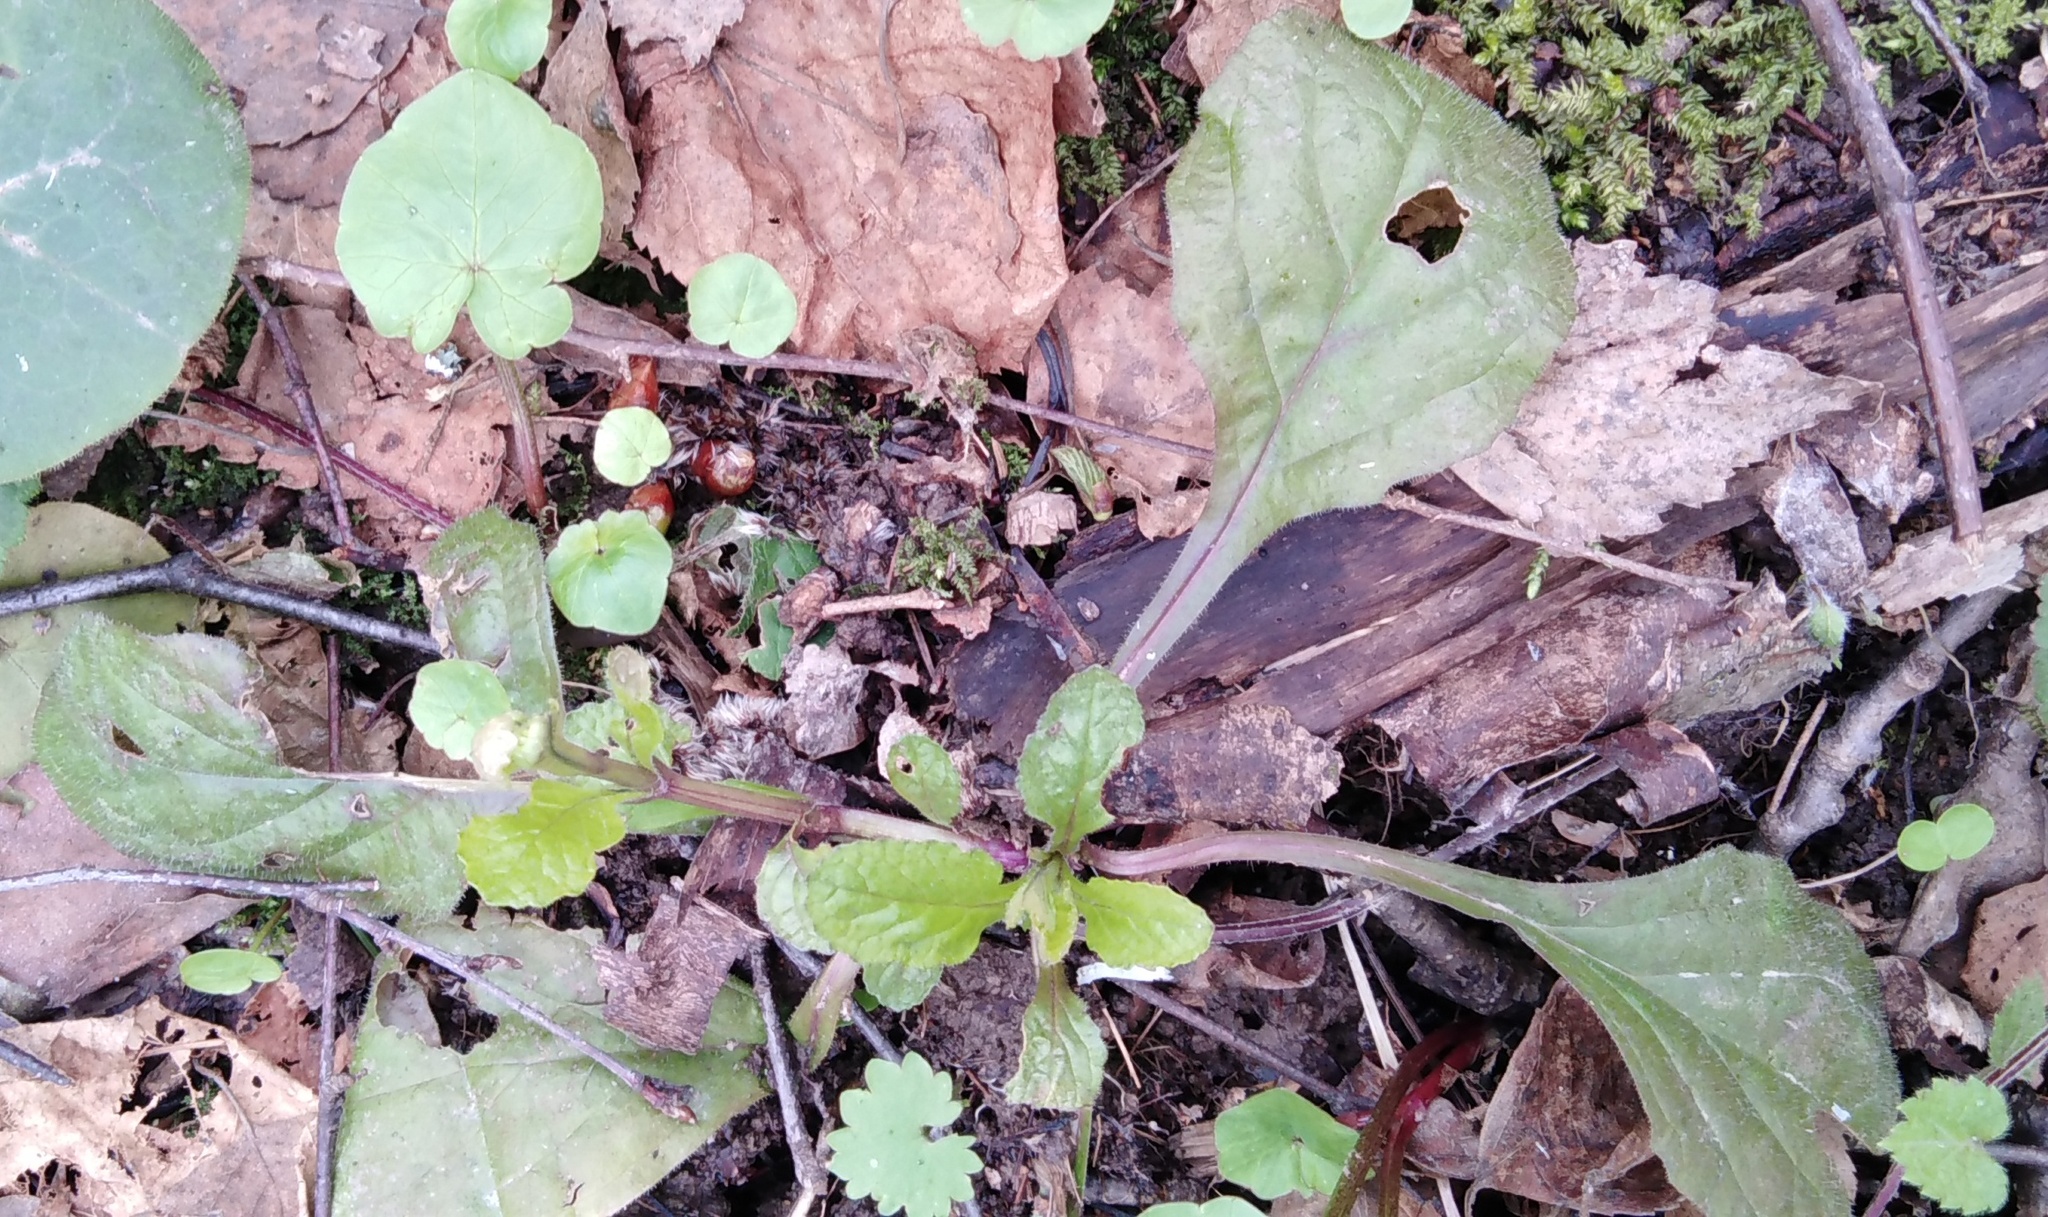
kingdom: Plantae
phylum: Tracheophyta
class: Magnoliopsida
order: Lamiales
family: Lamiaceae
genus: Ajuga
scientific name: Ajuga reptans
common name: Bugle
